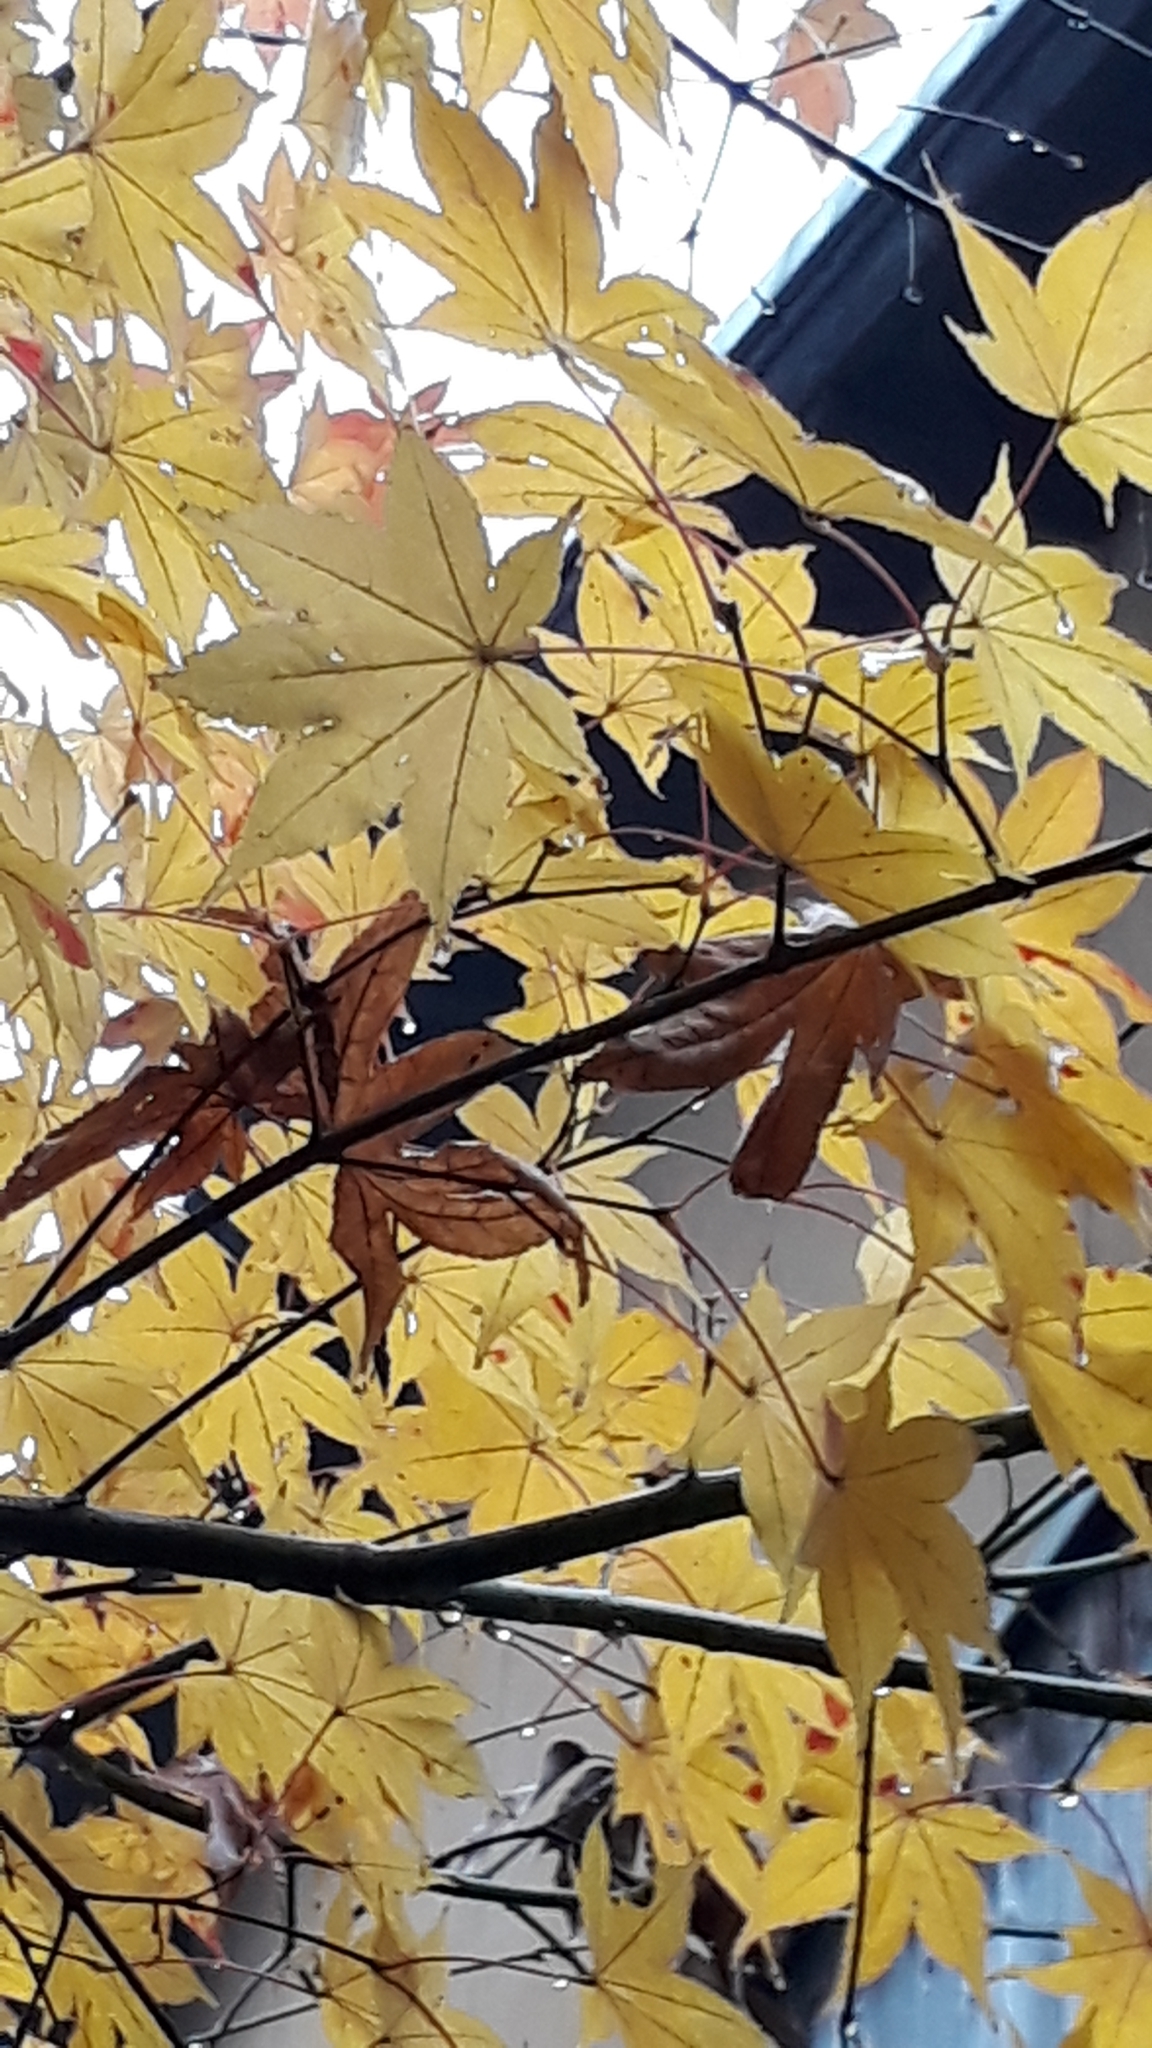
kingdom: Plantae
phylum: Tracheophyta
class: Magnoliopsida
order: Sapindales
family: Sapindaceae
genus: Acer
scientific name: Acer palmatum
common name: Japanese maple
